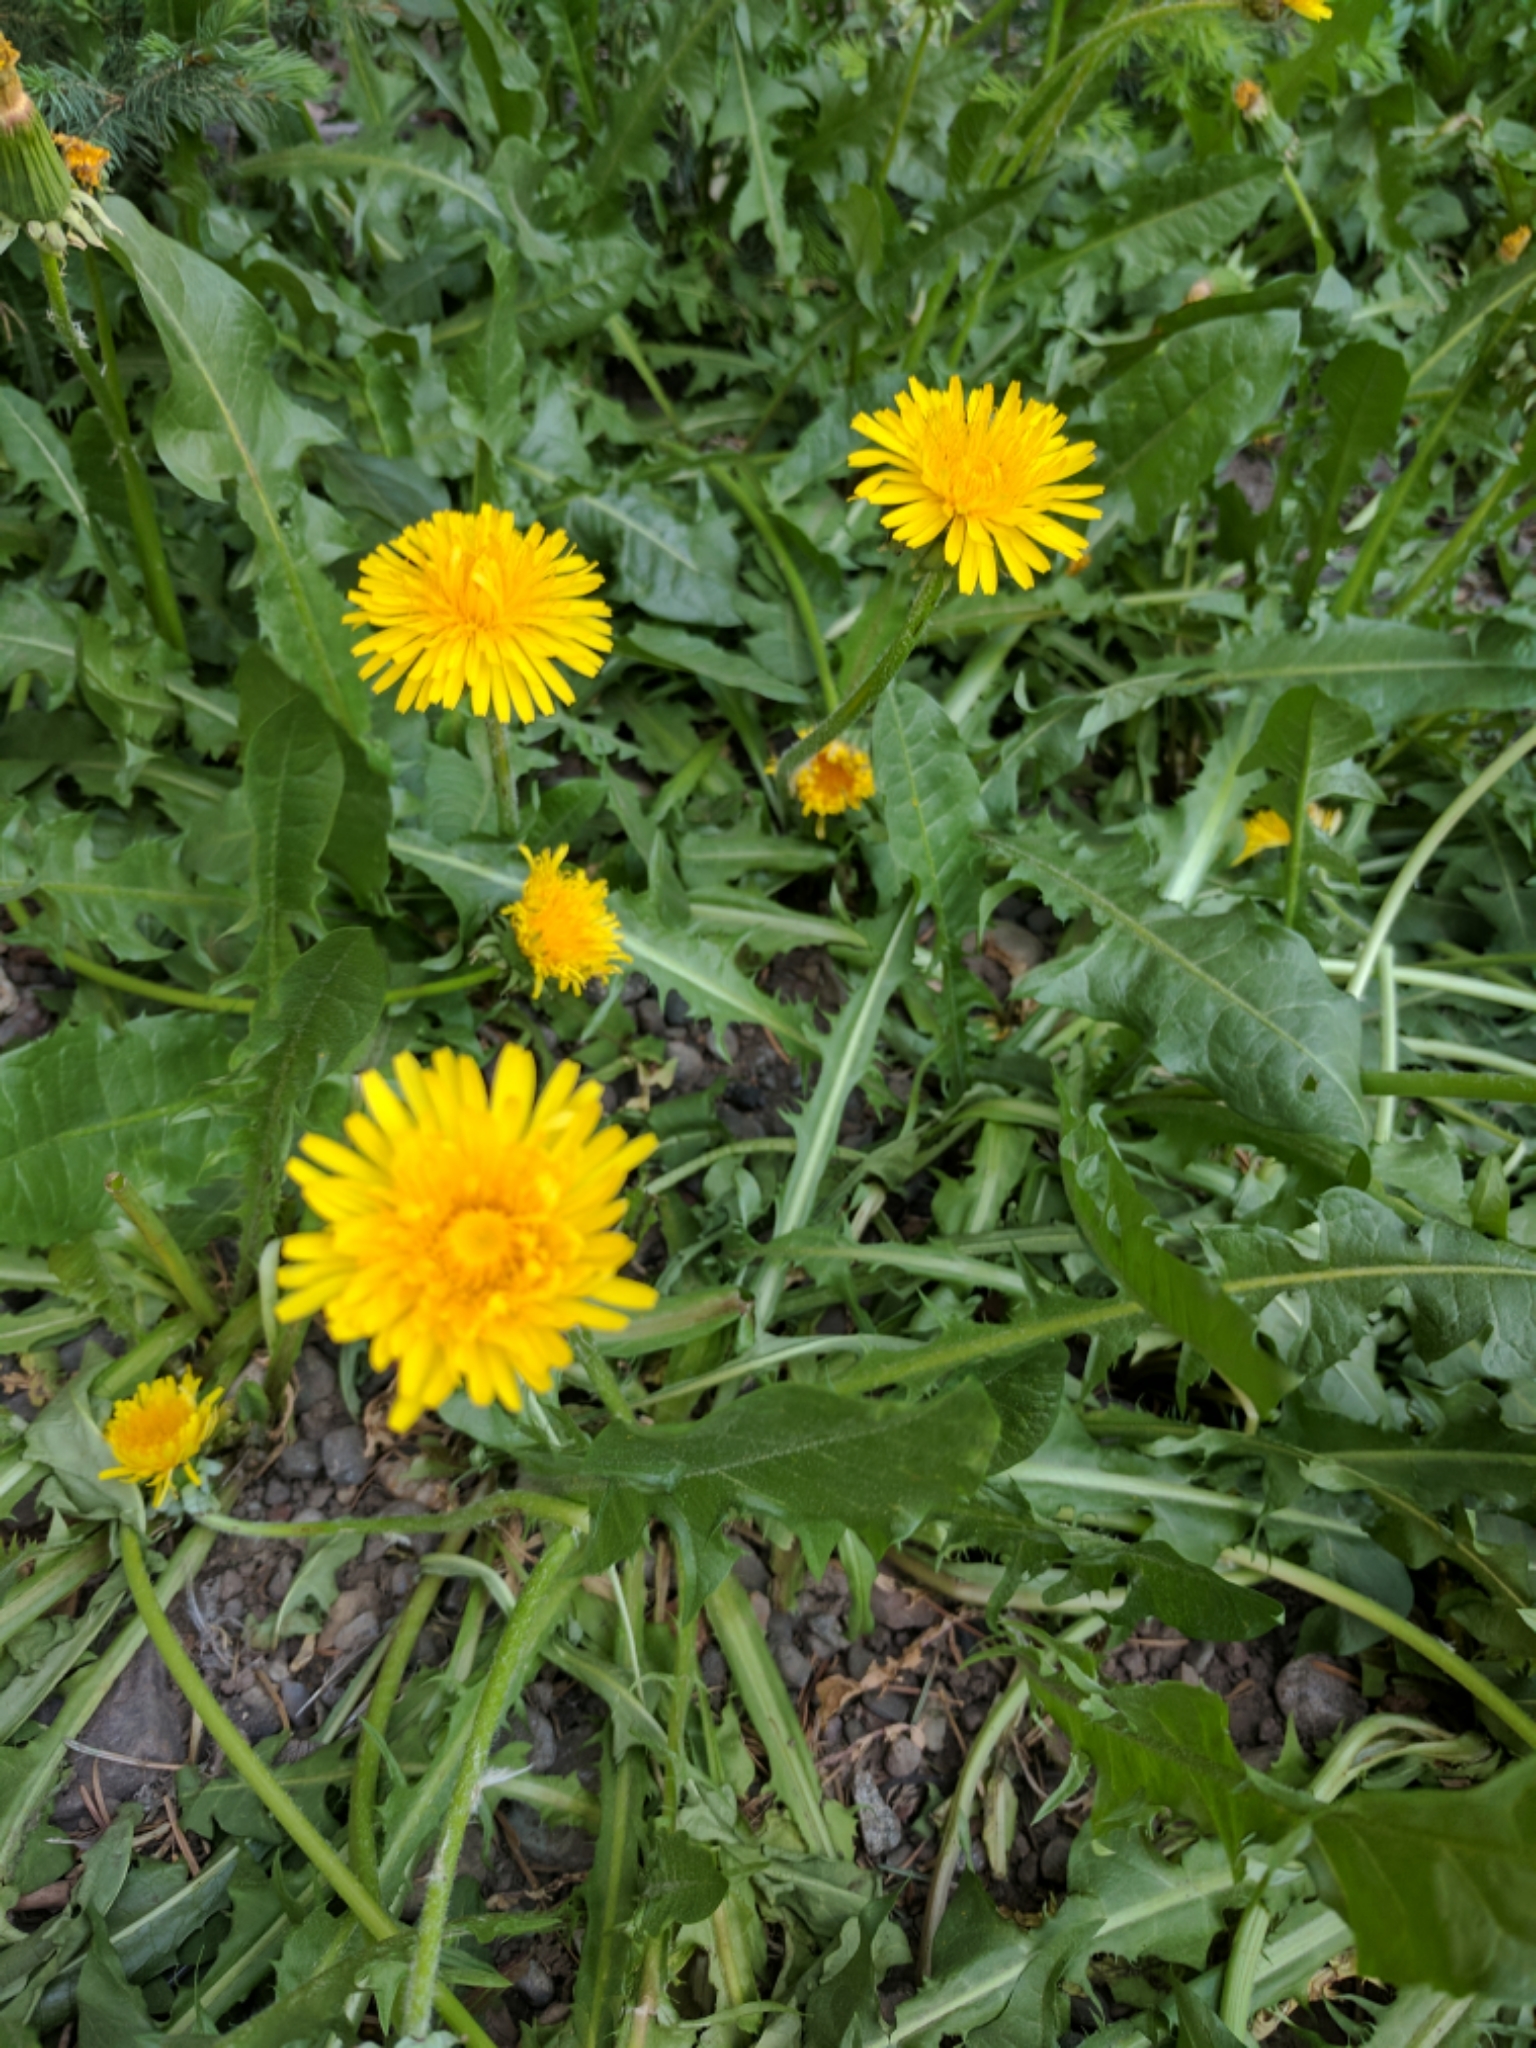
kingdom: Plantae
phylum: Tracheophyta
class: Magnoliopsida
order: Asterales
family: Asteraceae
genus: Taraxacum
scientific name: Taraxacum officinale
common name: Common dandelion
